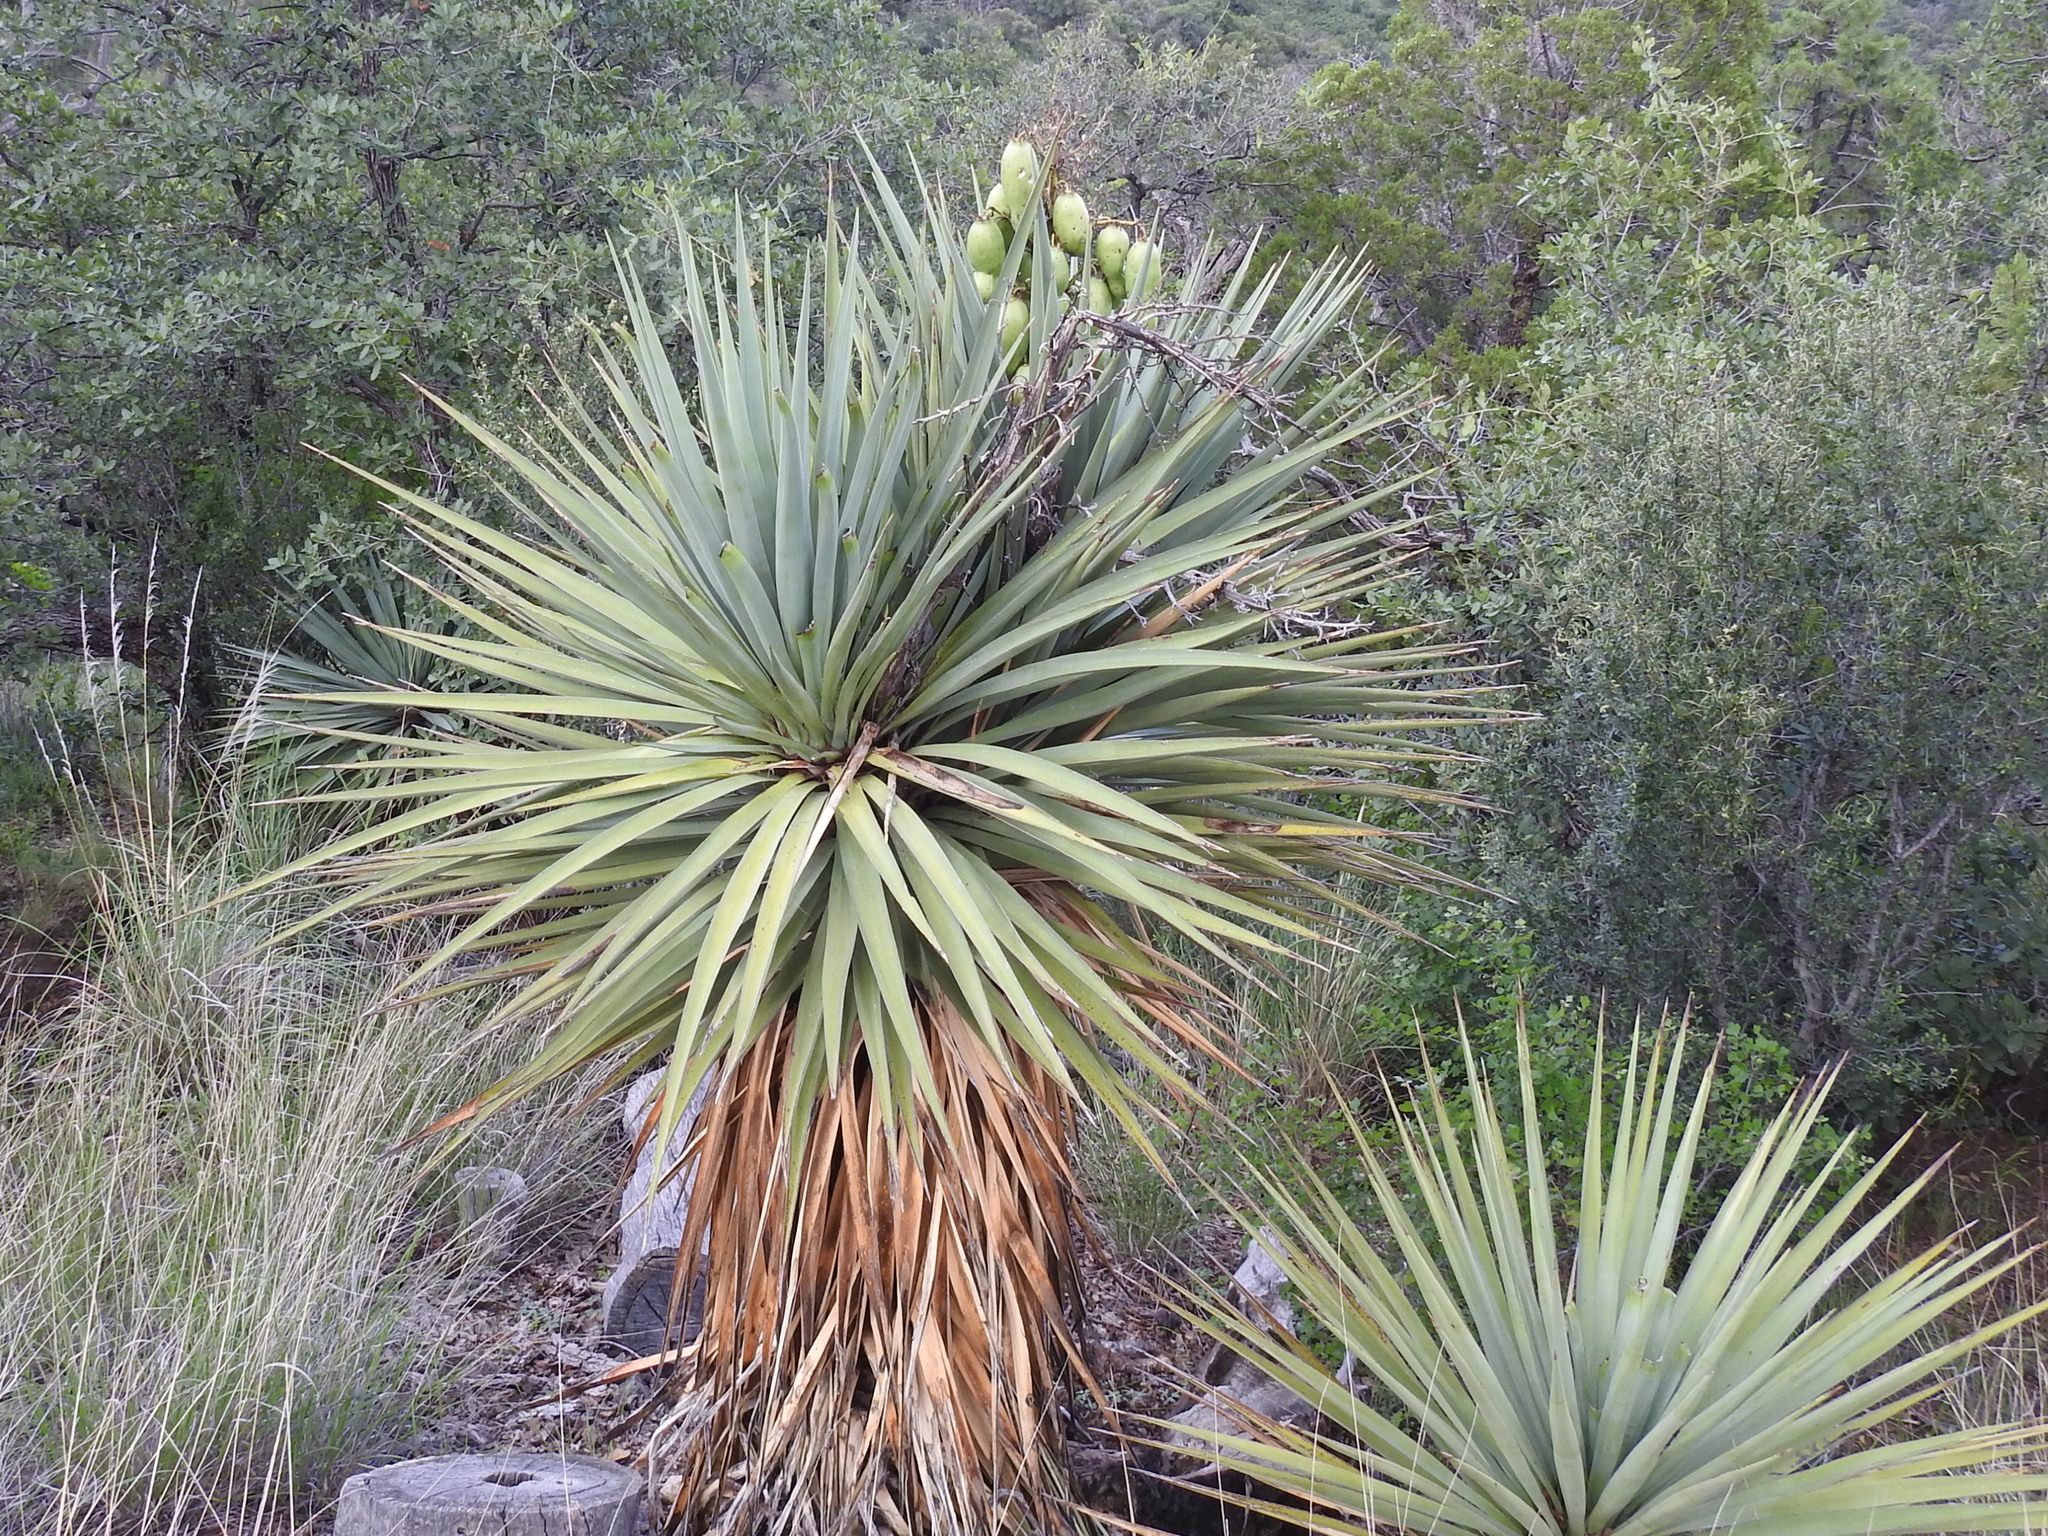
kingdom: Plantae
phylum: Tracheophyta
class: Liliopsida
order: Asparagales
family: Asparagaceae
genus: Yucca
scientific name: Yucca madrensis
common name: Hoary yucca
